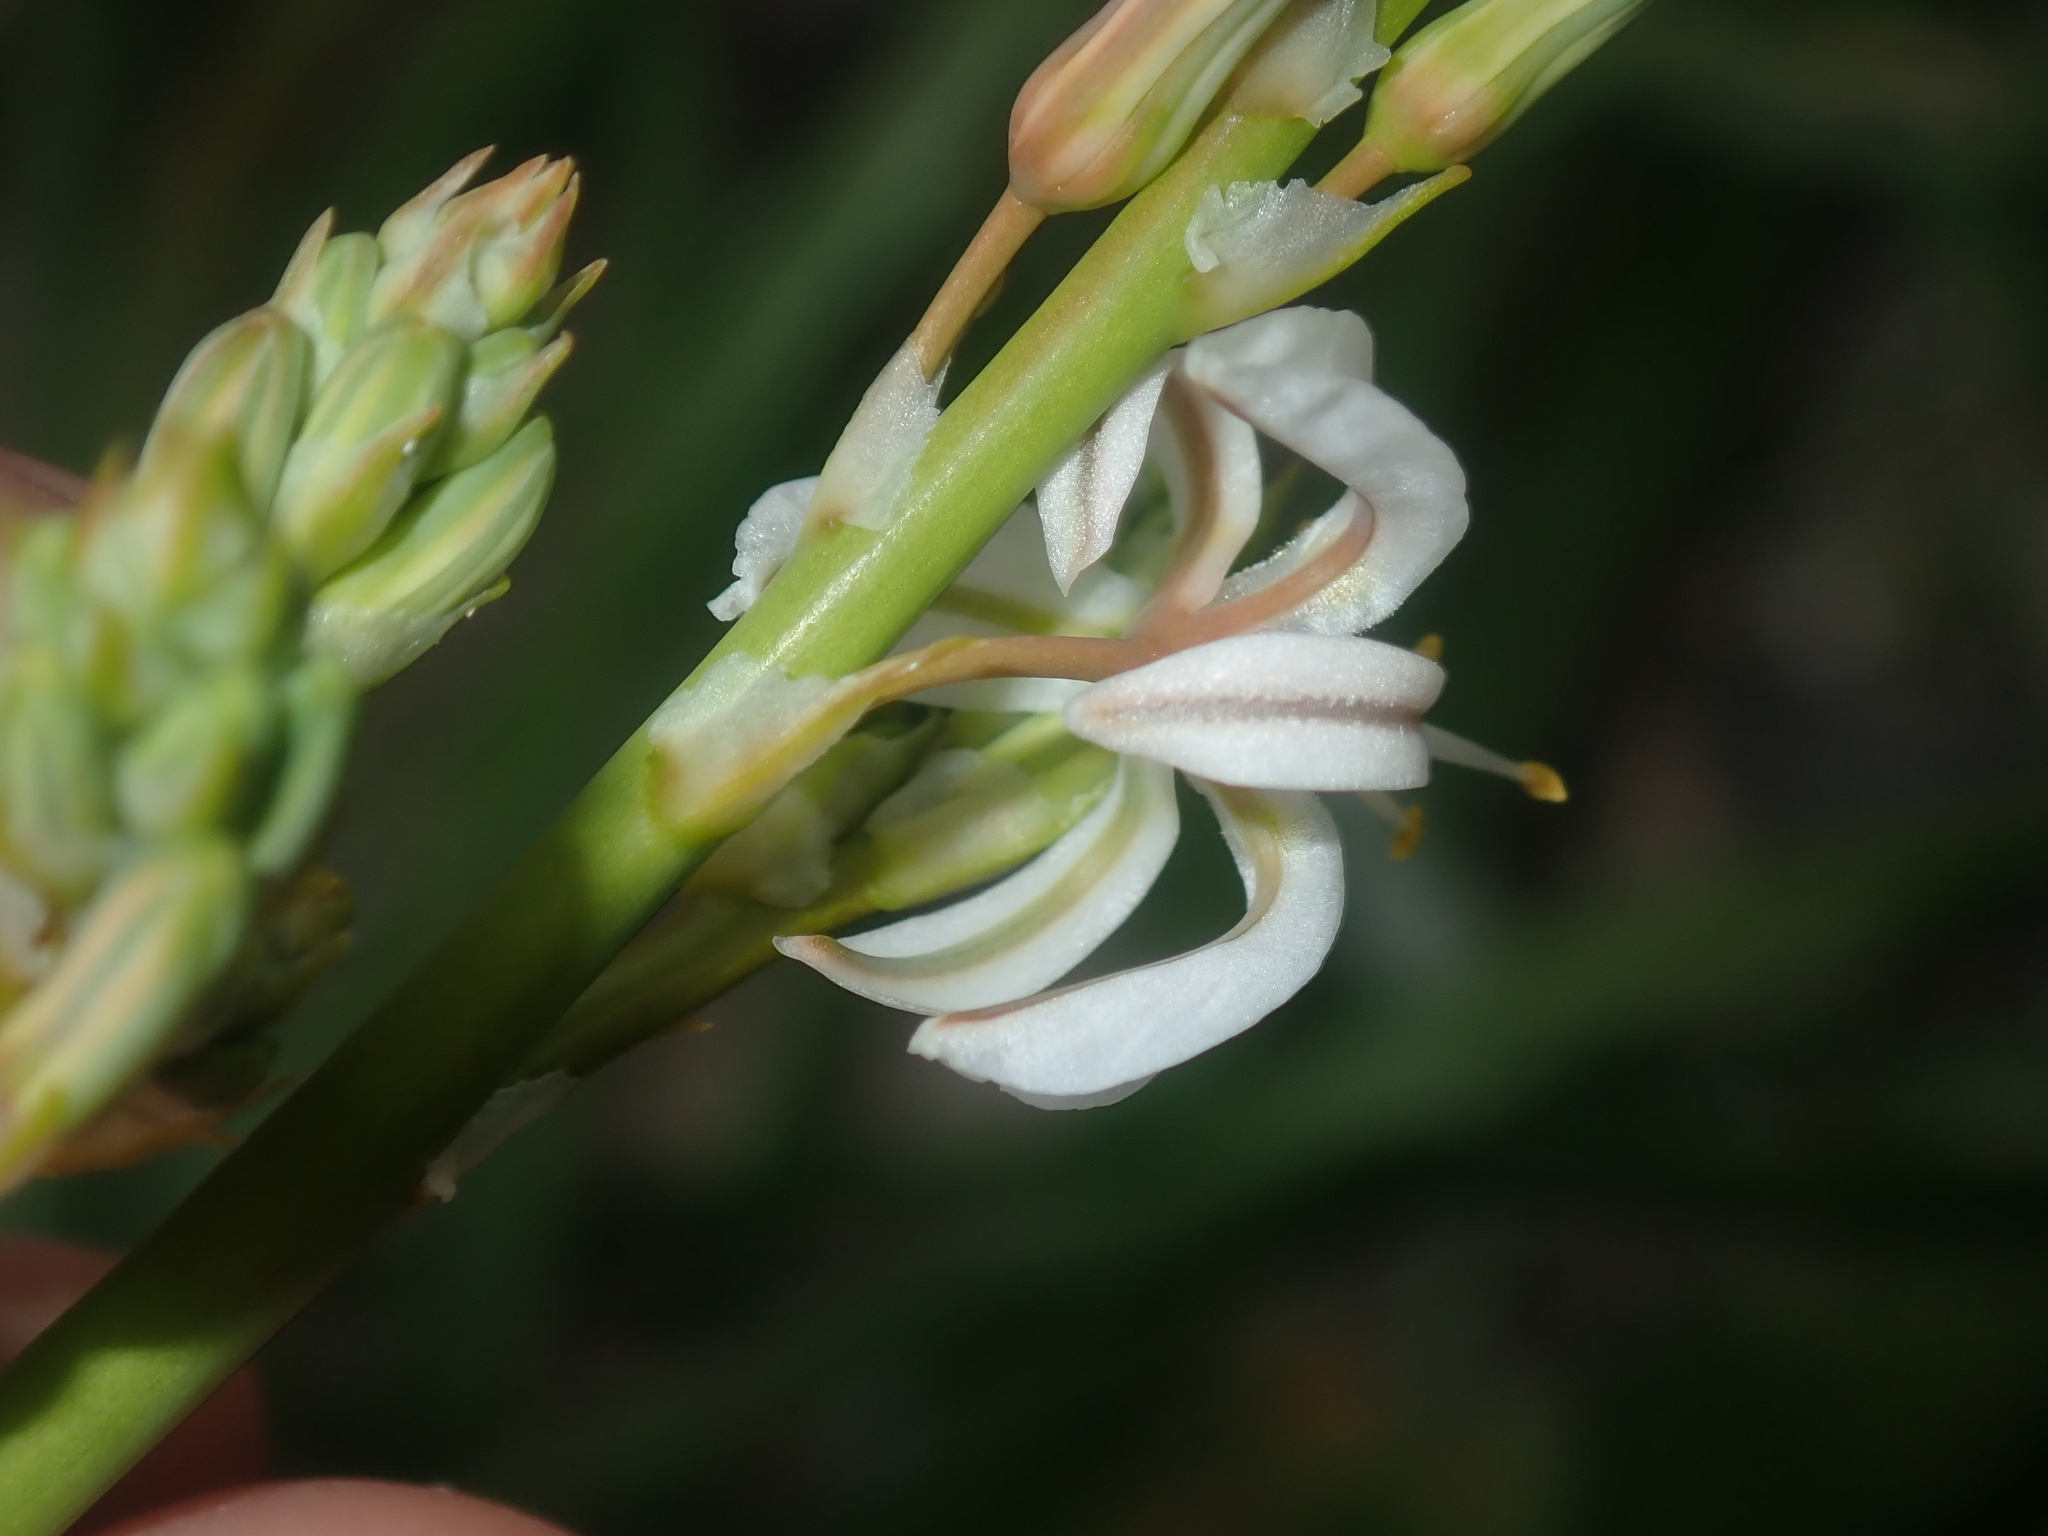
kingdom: Plantae
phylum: Tracheophyta
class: Liliopsida
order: Asparagales
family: Asphodelaceae
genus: Trachyandra
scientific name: Trachyandra divaricata
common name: Dune onionweed
